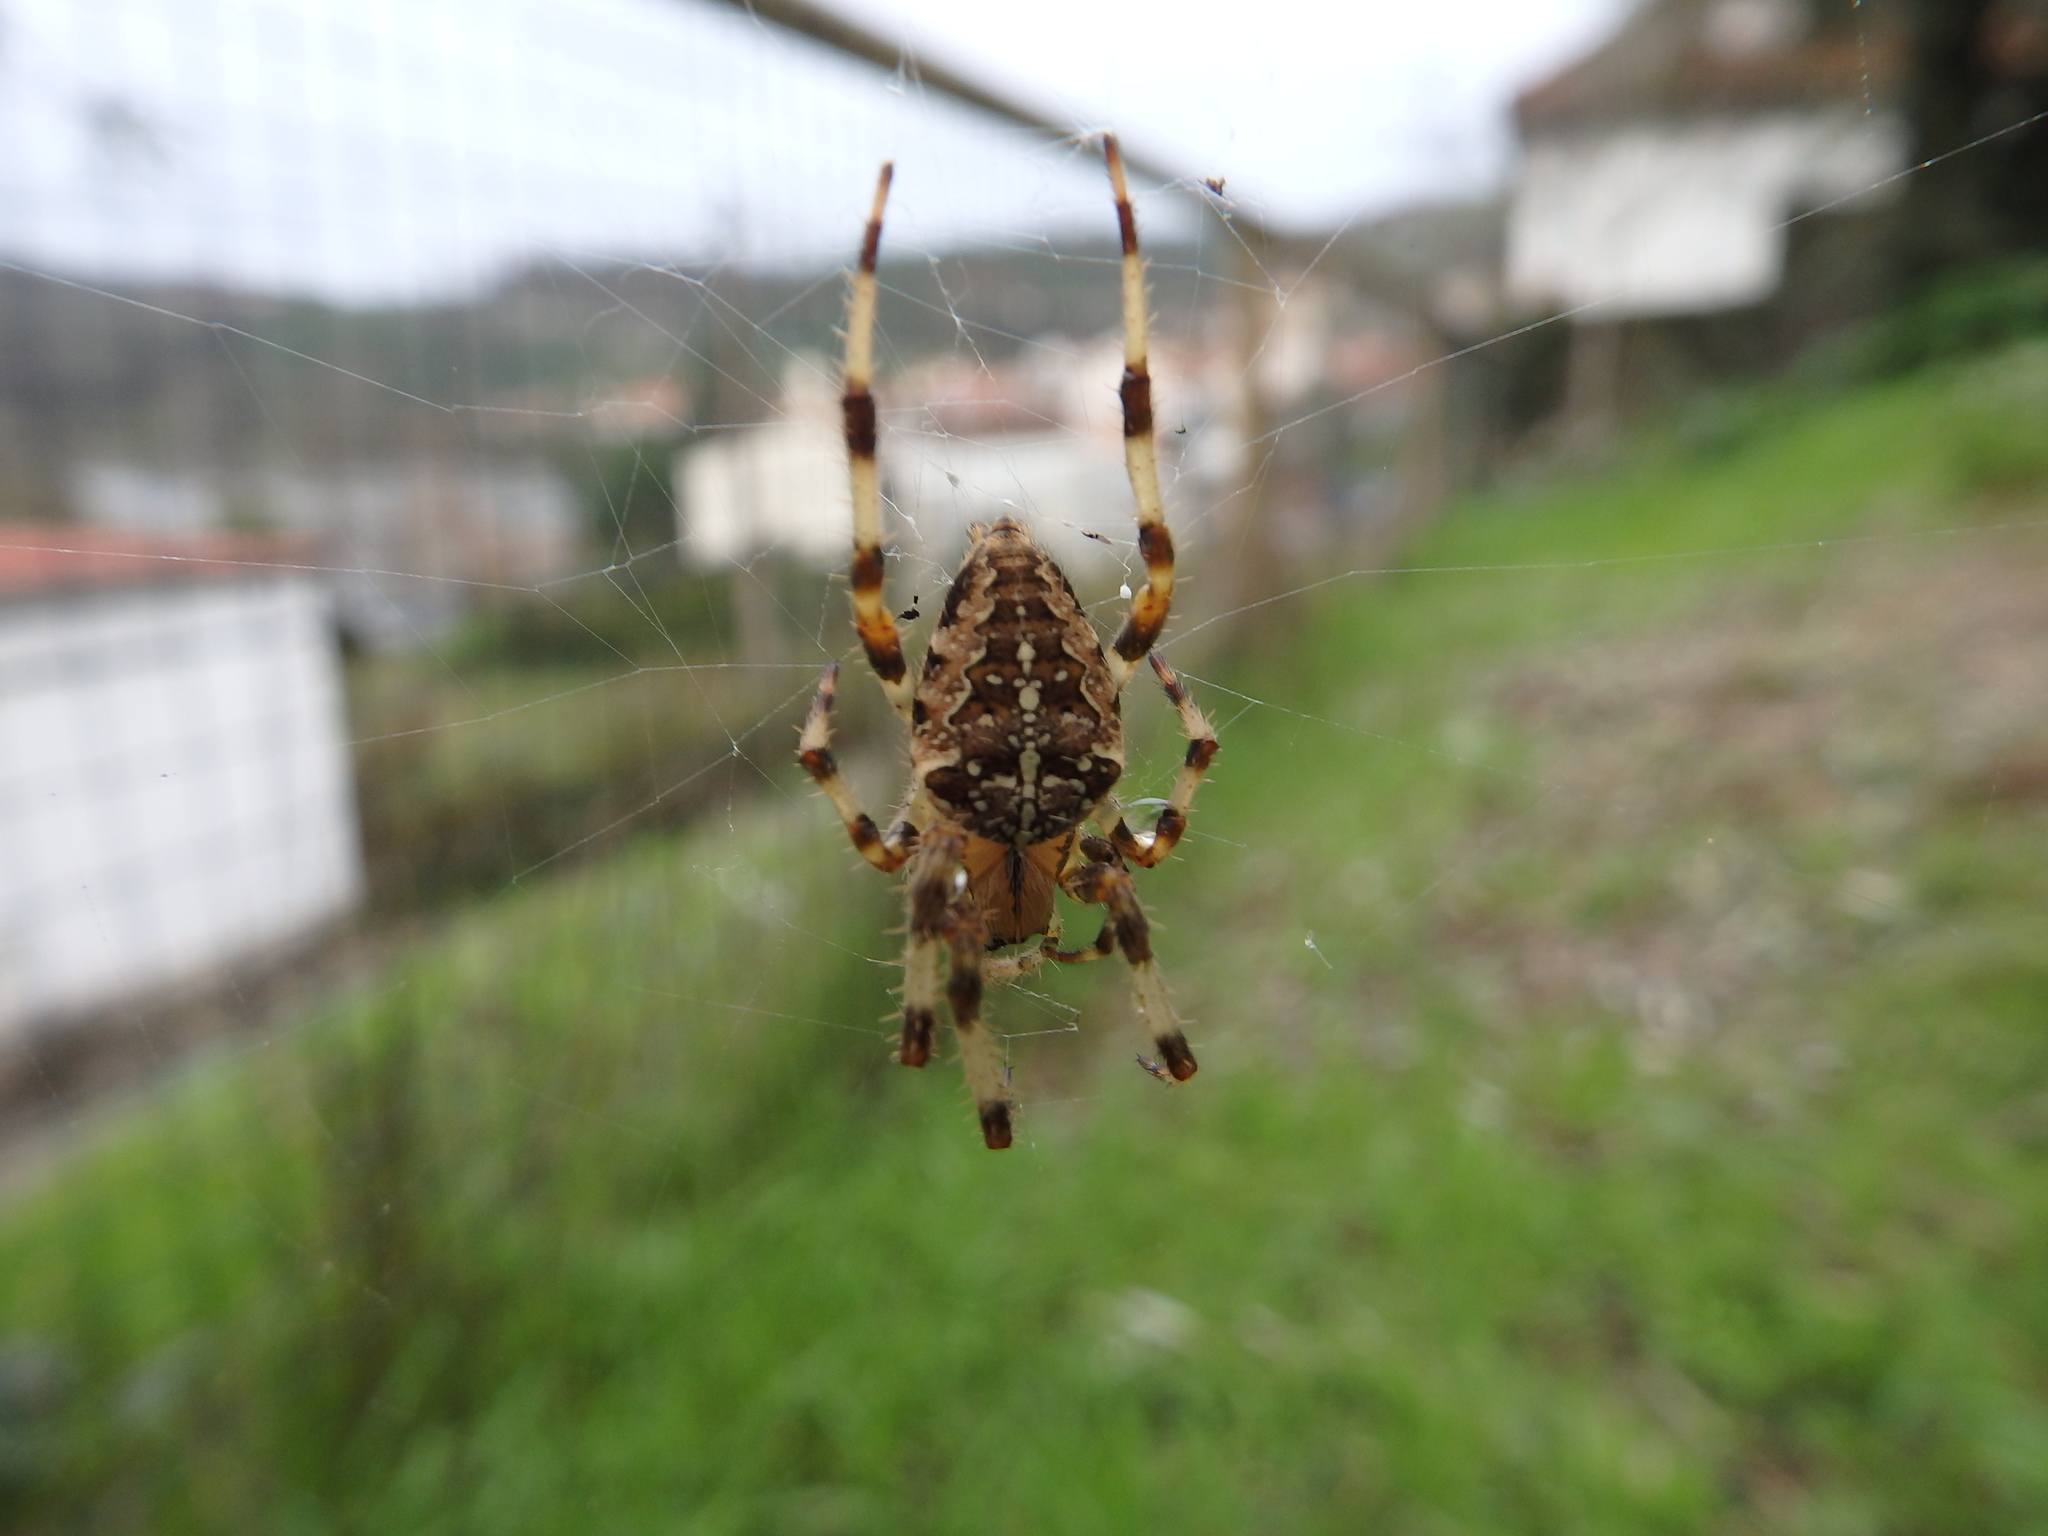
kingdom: Animalia
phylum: Arthropoda
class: Arachnida
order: Araneae
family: Araneidae
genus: Araneus
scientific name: Araneus diadematus
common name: Cross orbweaver
